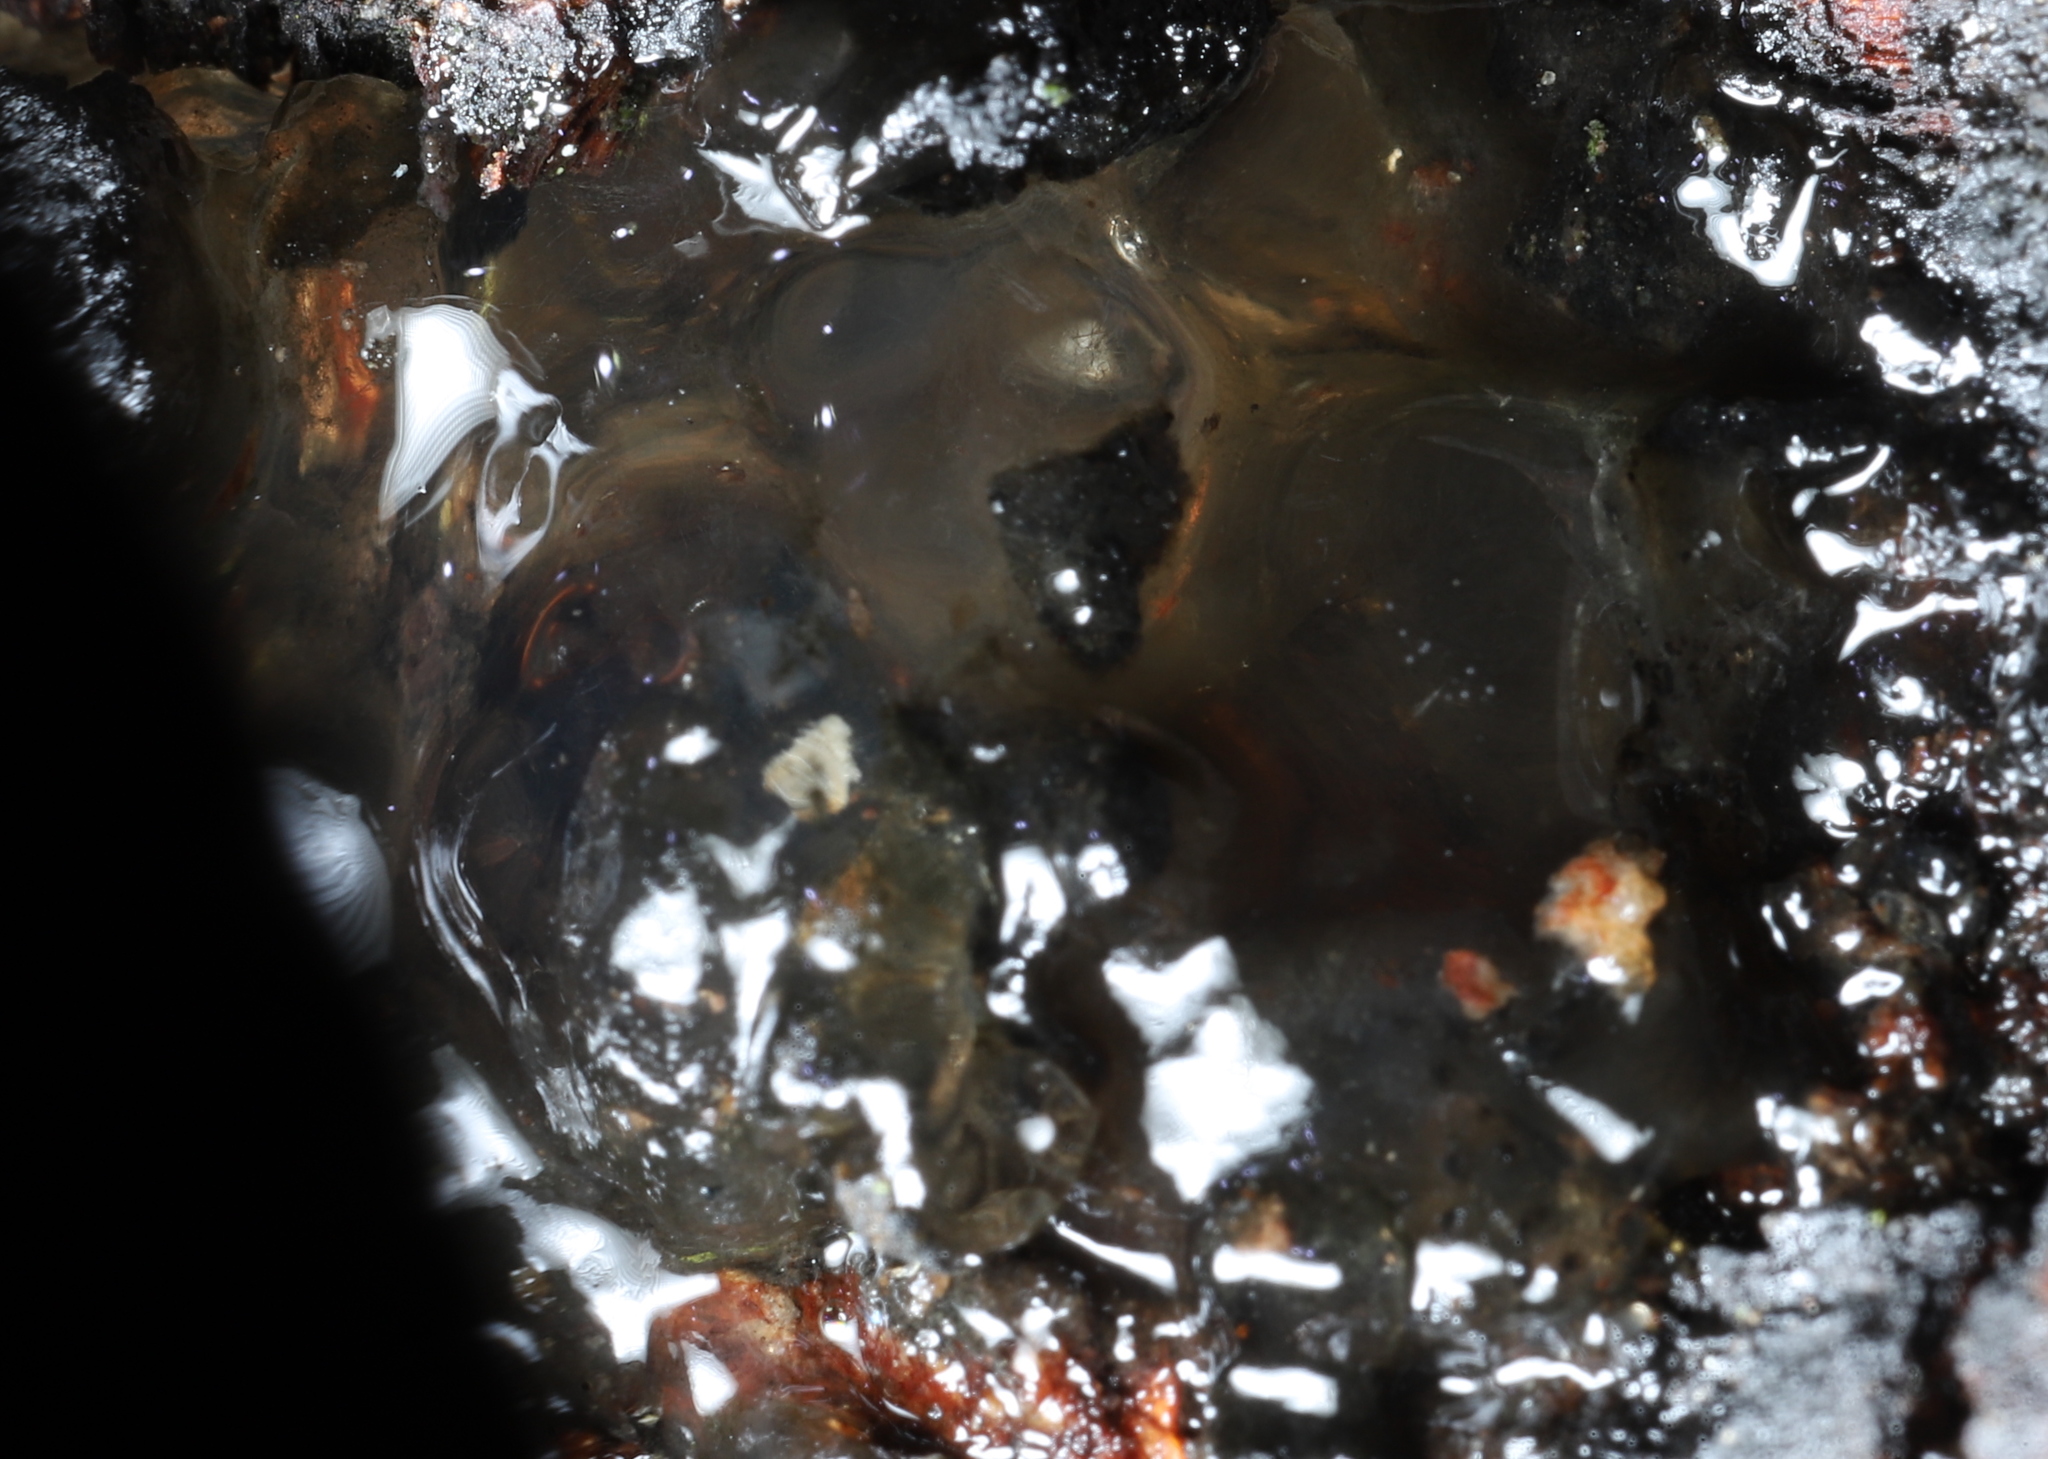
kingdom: Fungi
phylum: Basidiomycota
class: Agaricomycetes
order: Auriculariales
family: Hyaloriaceae
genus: Myxarium
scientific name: Myxarium nucleatum
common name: Crystal brain fungus
